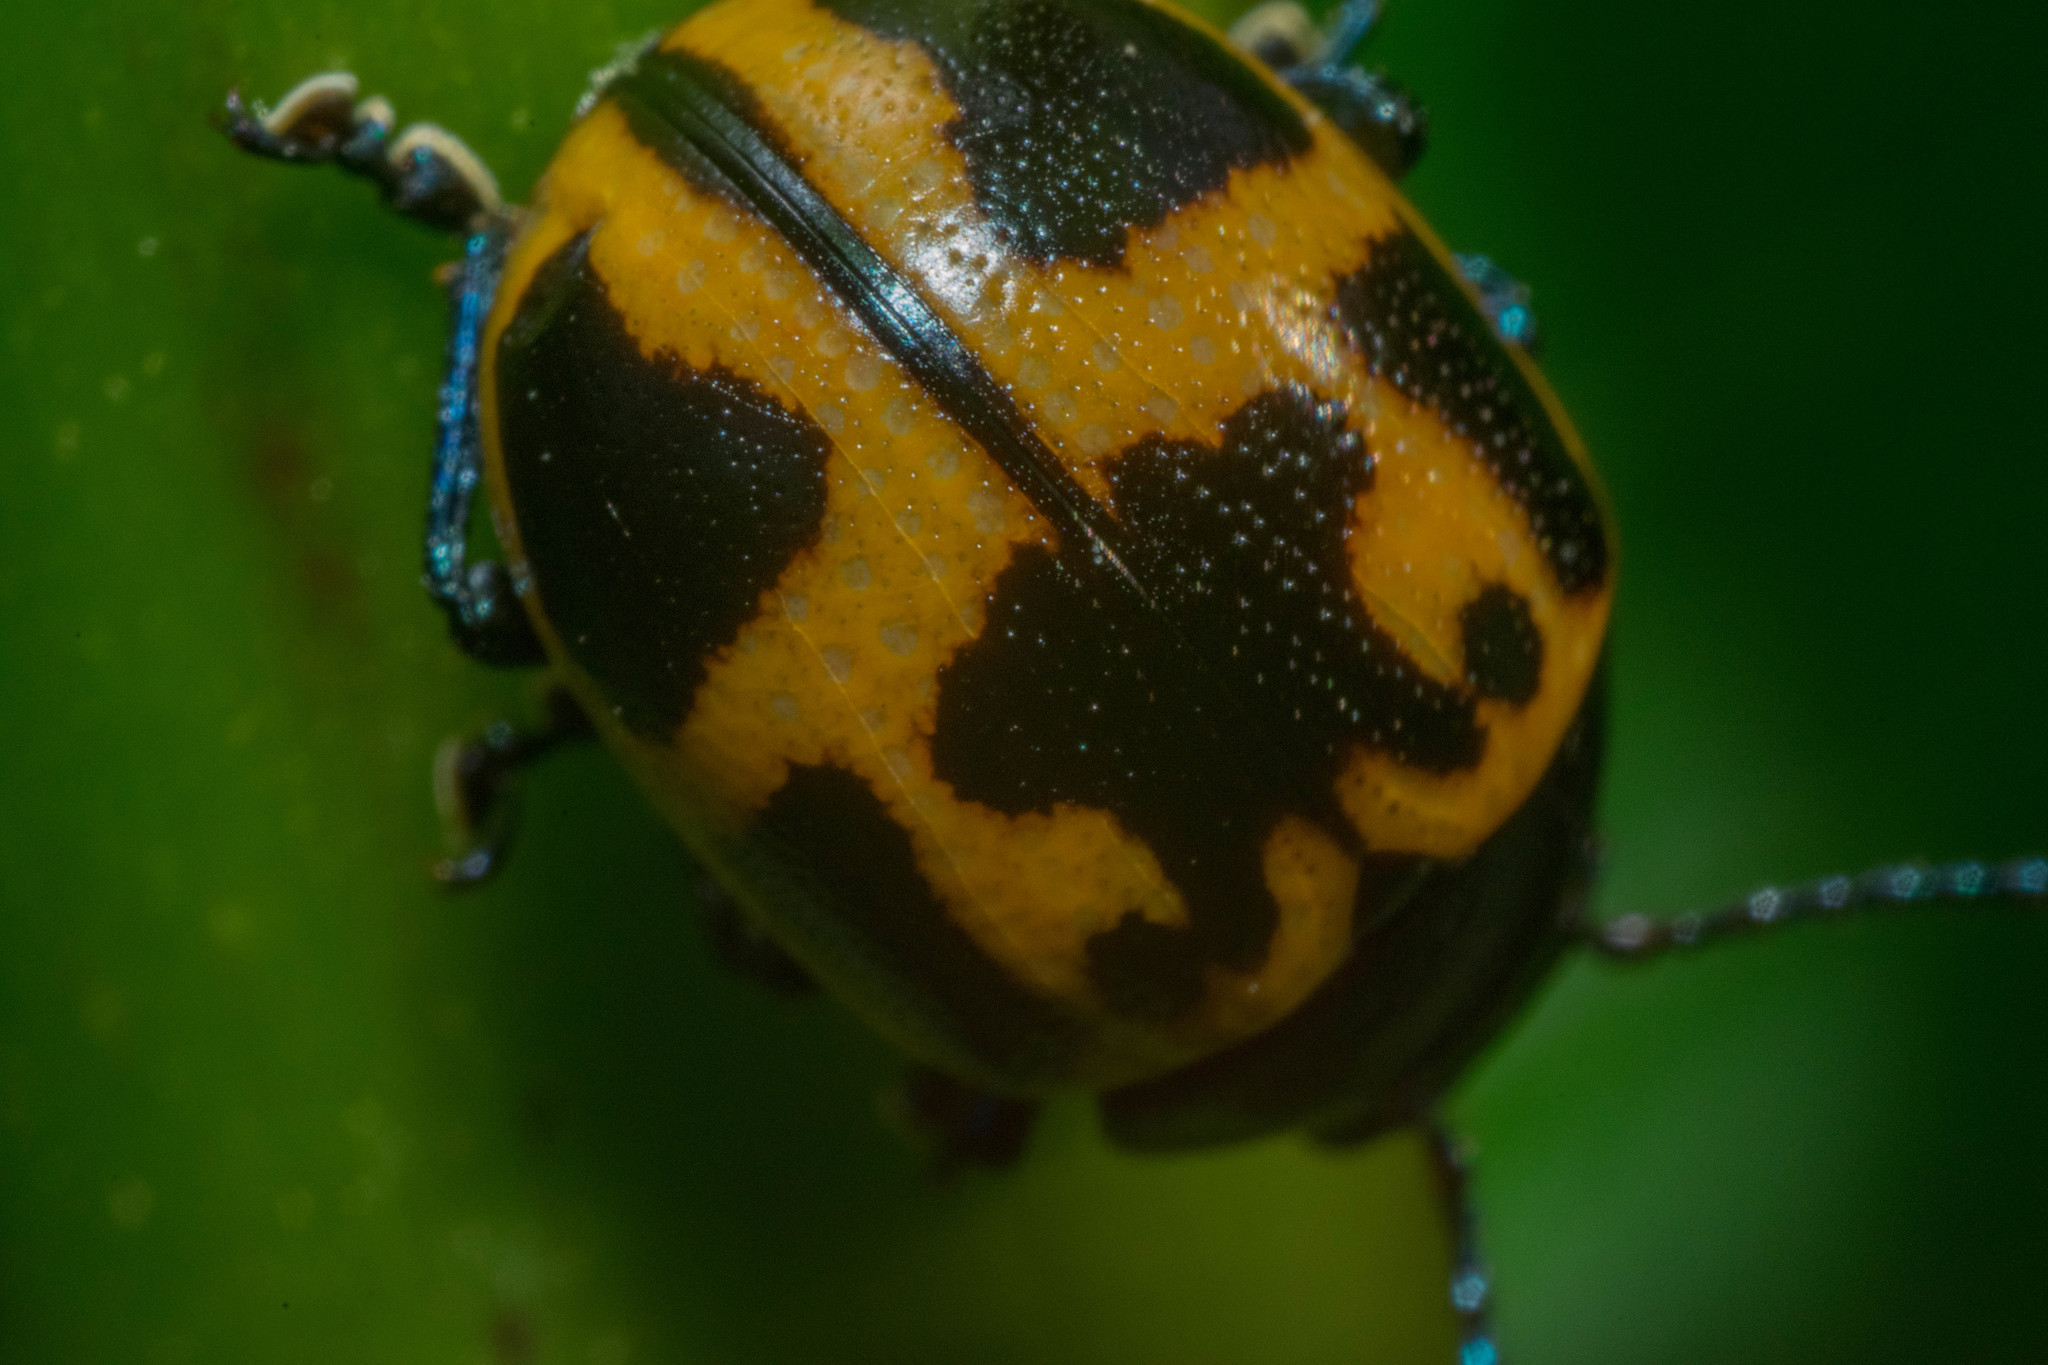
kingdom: Animalia
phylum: Arthropoda
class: Insecta
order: Coleoptera
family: Chrysomelidae
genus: Labidomera
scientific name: Labidomera clivicollis
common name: Swamp milkweed leaf beetle
